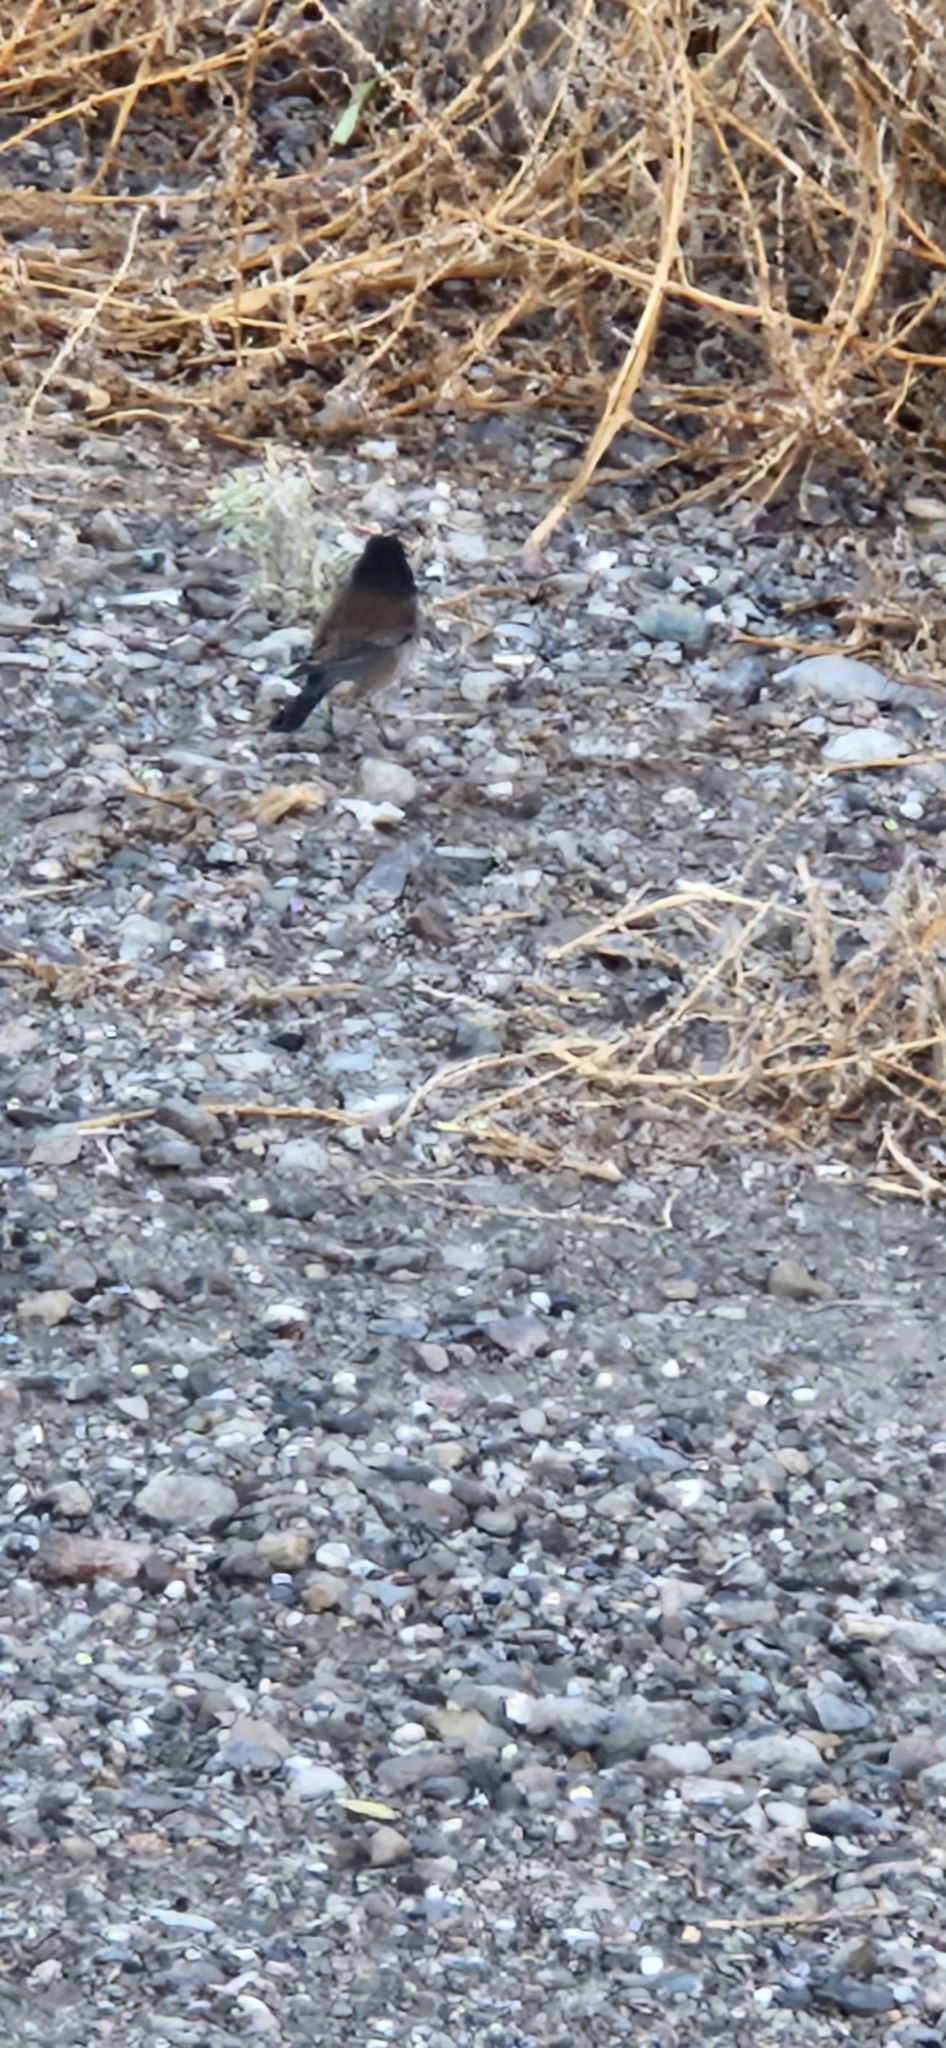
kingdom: Animalia
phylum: Chordata
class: Aves
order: Passeriformes
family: Passerellidae
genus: Junco
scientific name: Junco hyemalis
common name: Dark-eyed junco
